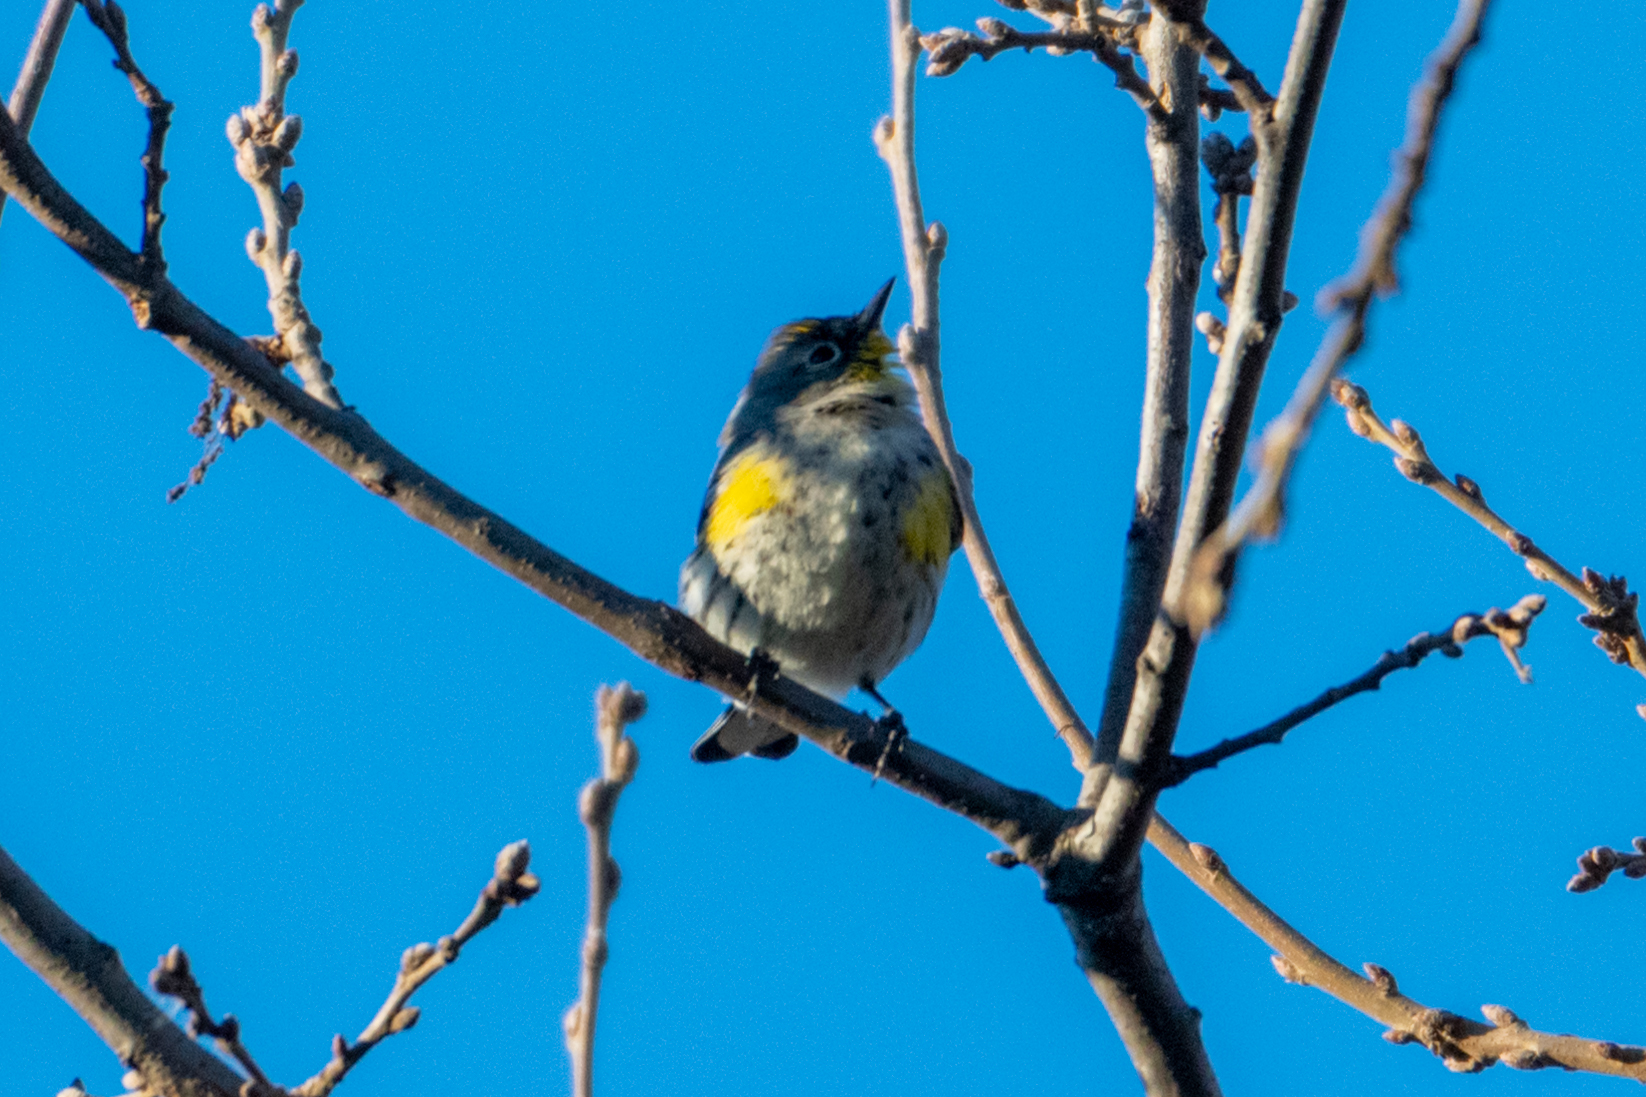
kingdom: Animalia
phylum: Chordata
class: Aves
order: Passeriformes
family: Parulidae
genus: Setophaga
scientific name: Setophaga coronata
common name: Myrtle warbler
